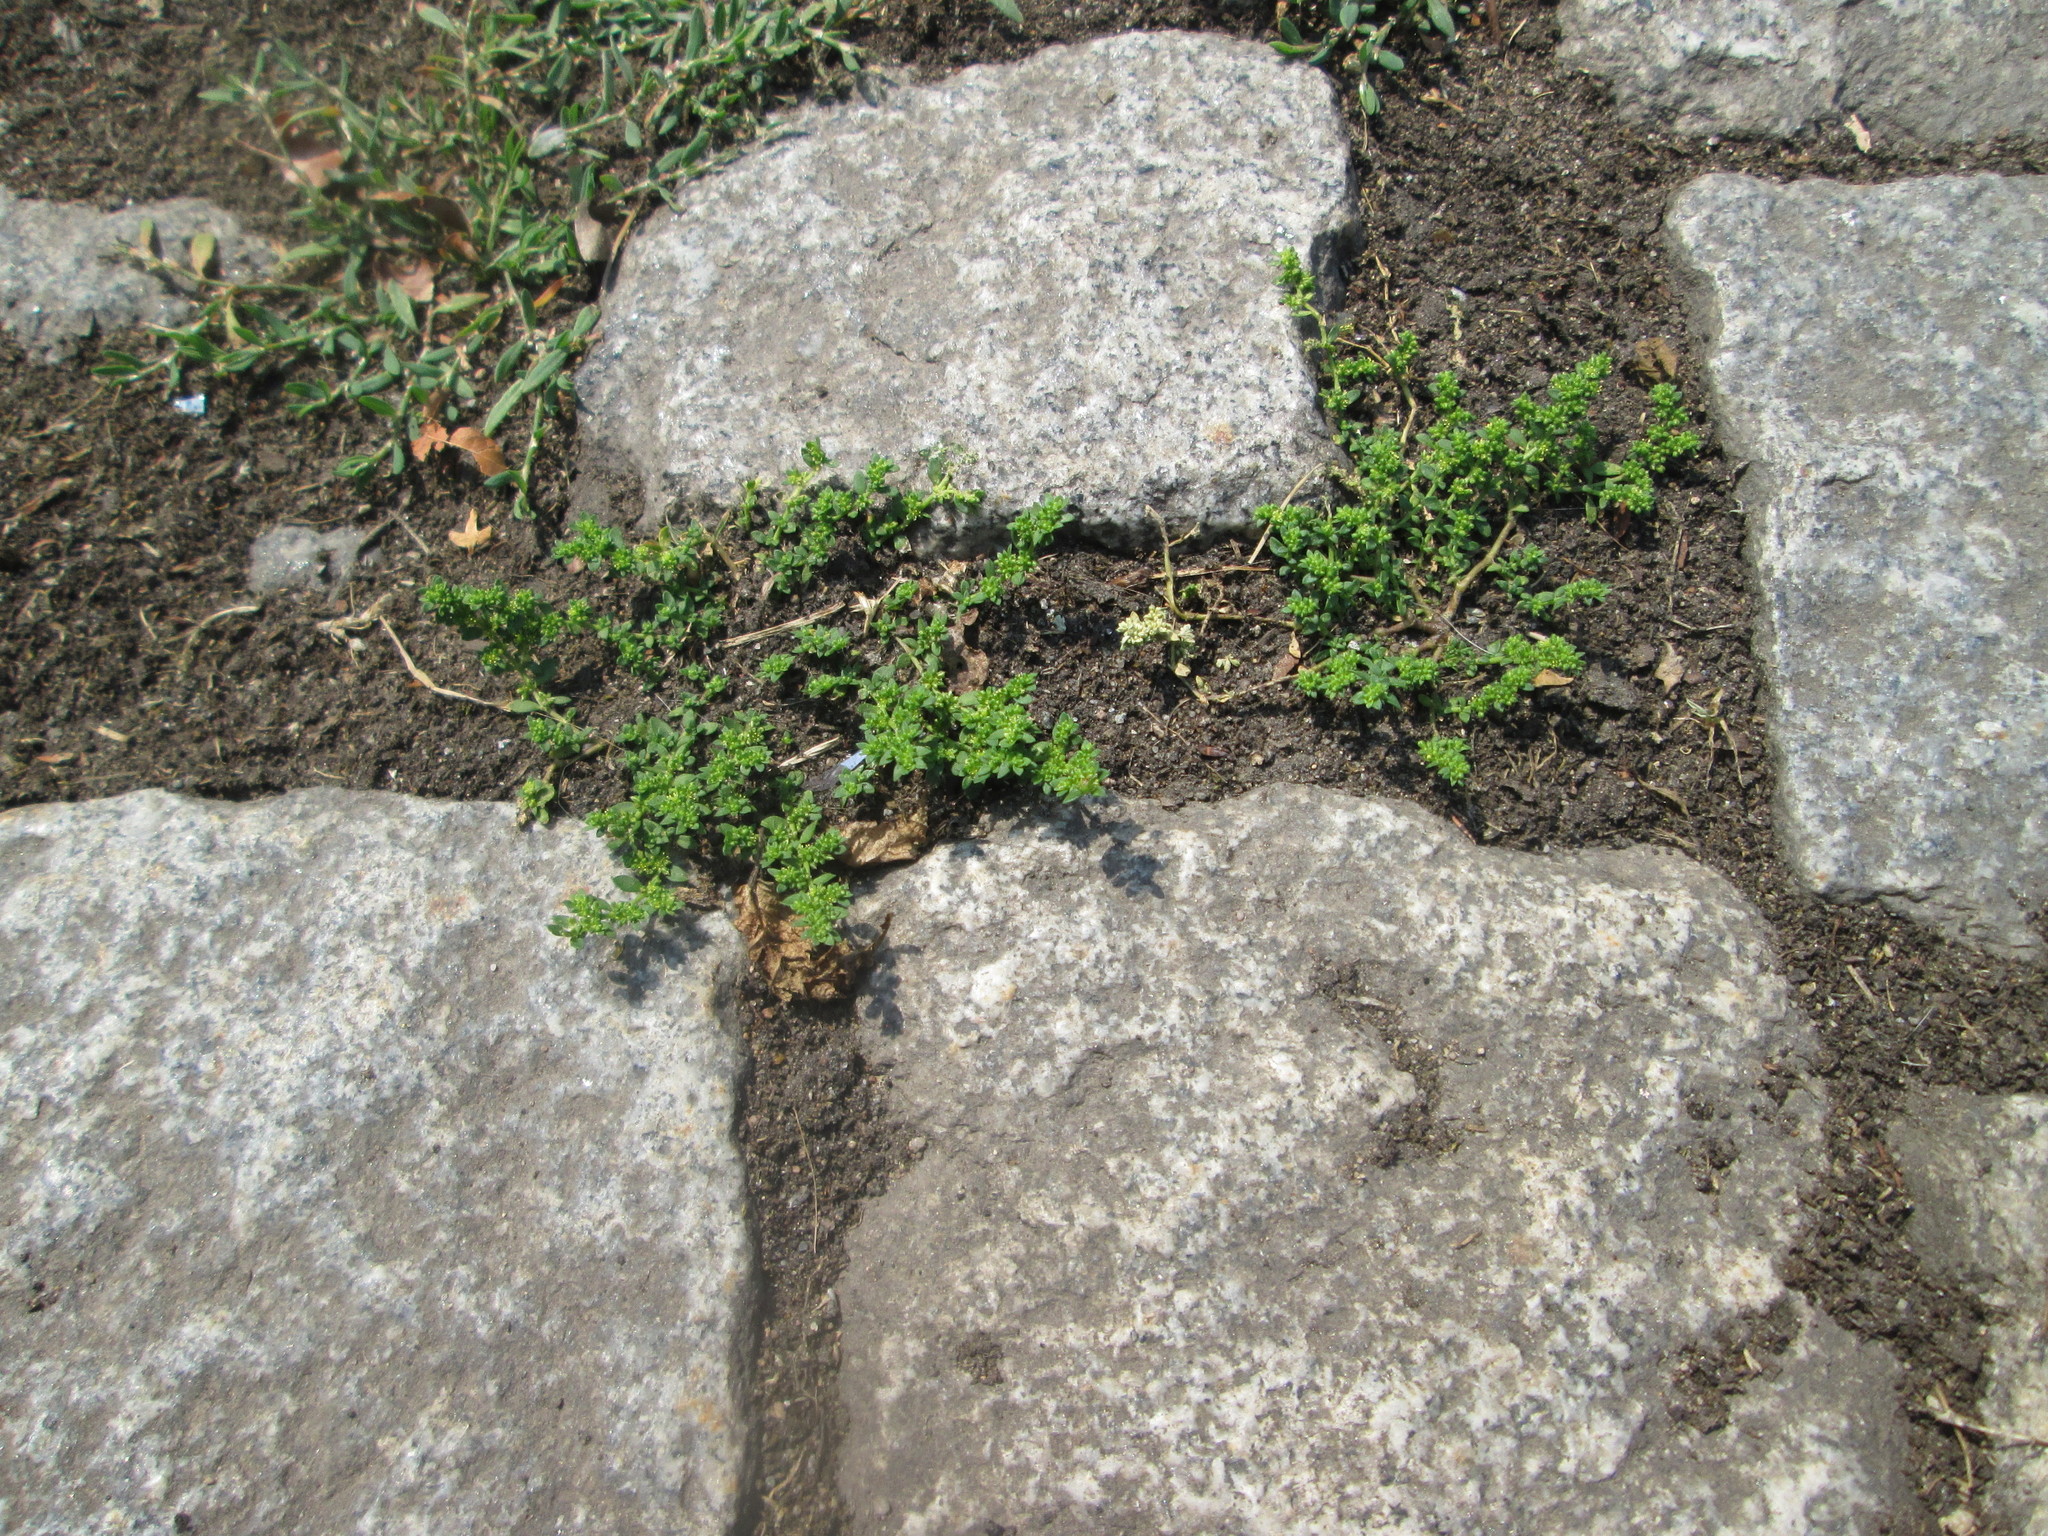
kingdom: Plantae
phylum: Tracheophyta
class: Magnoliopsida
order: Caryophyllales
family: Caryophyllaceae
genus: Herniaria
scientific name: Herniaria glabra
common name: Smooth rupturewort
